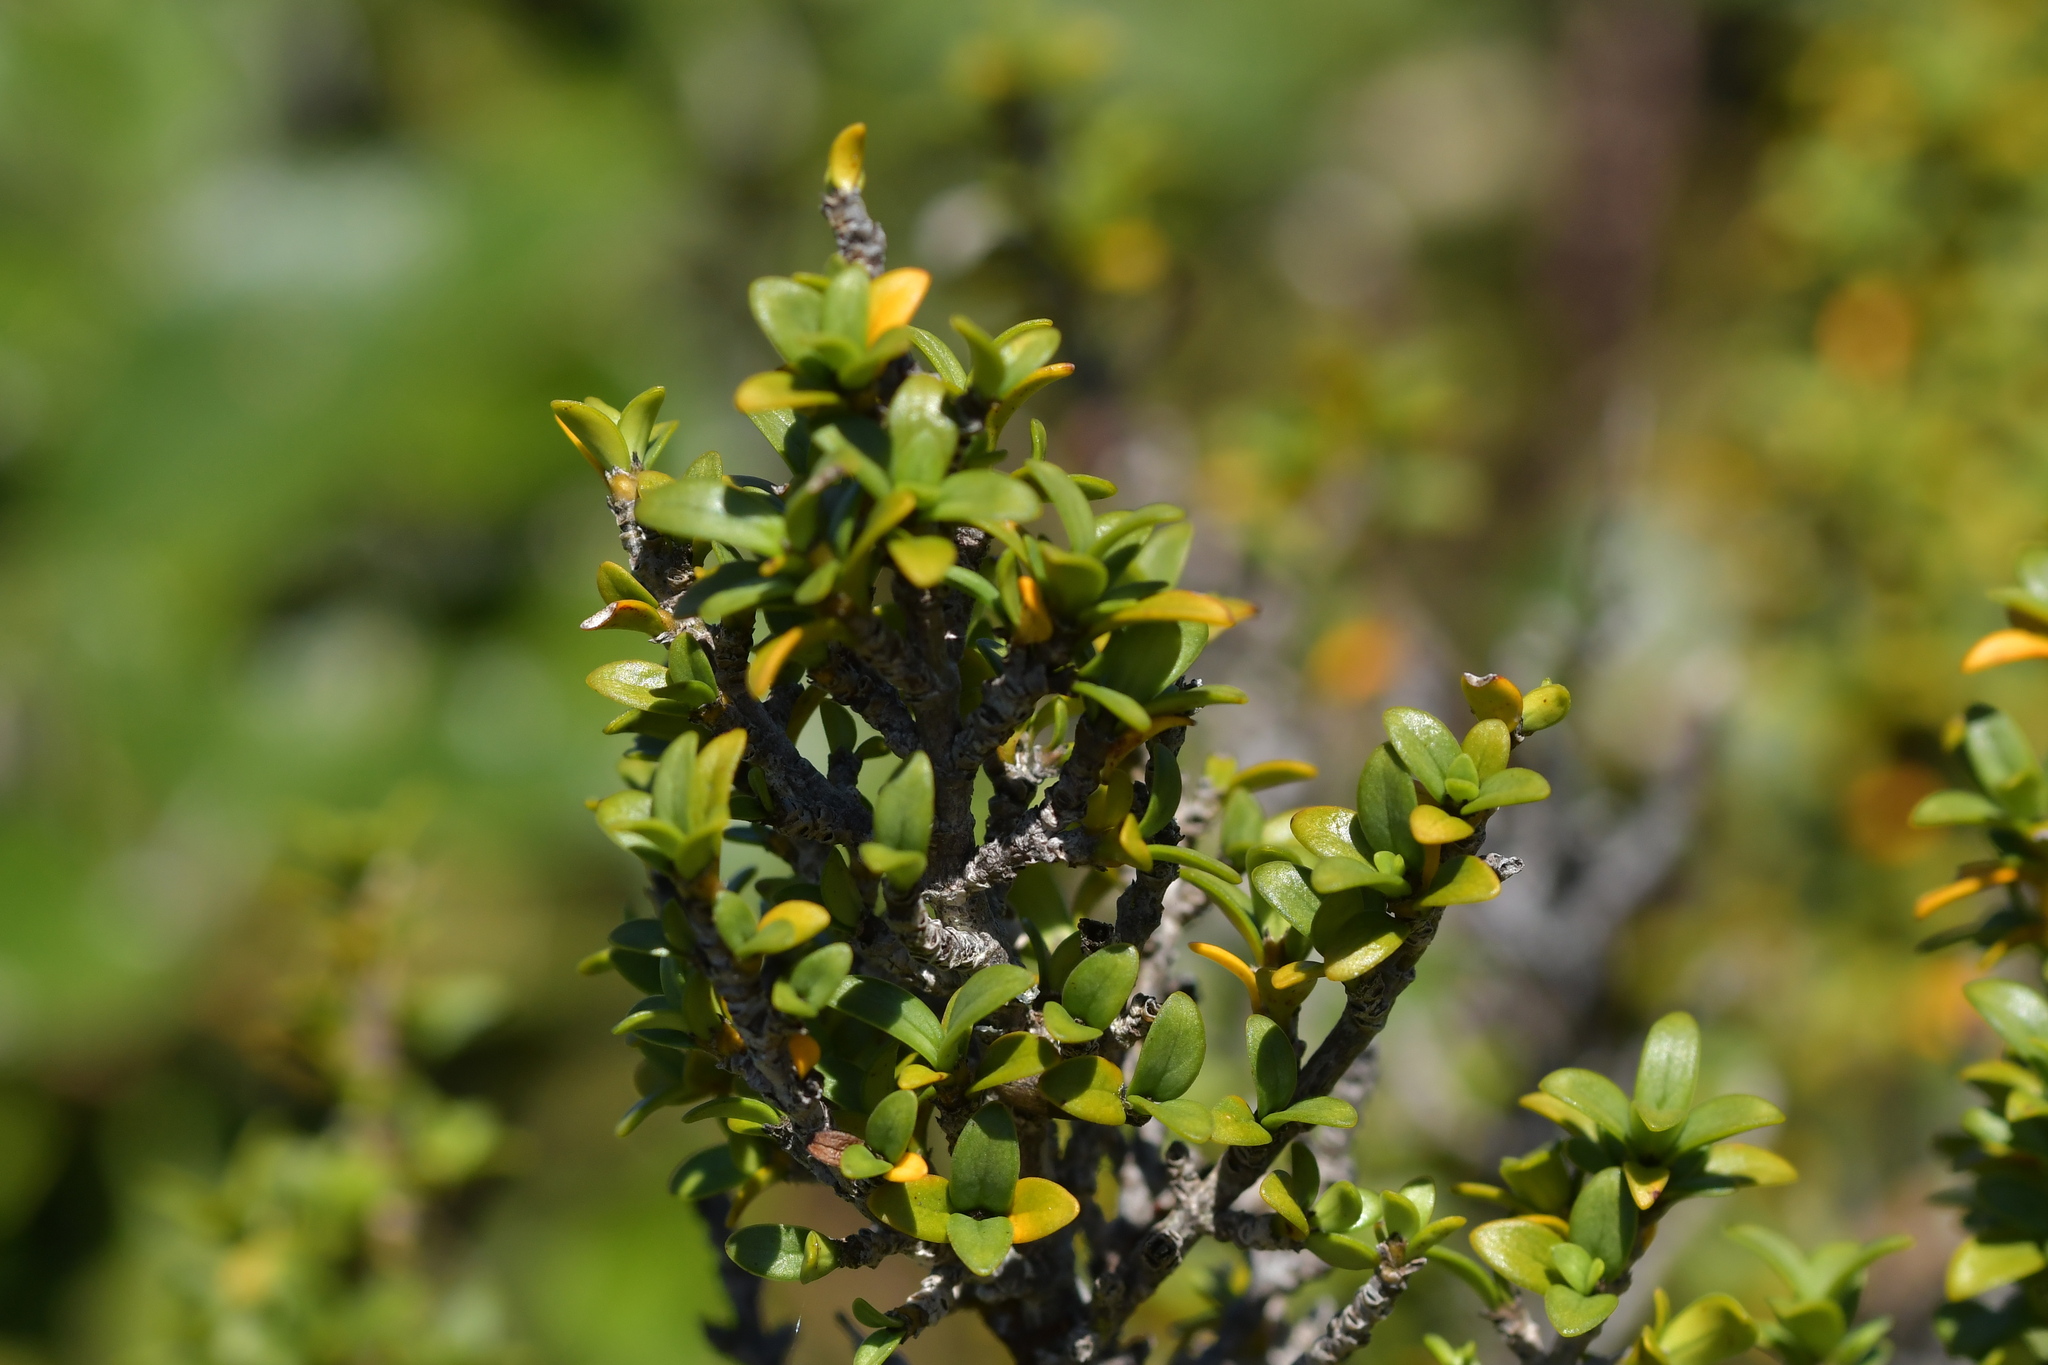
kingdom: Plantae
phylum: Tracheophyta
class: Magnoliopsida
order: Gentianales
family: Rubiaceae
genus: Coprosma
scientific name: Coprosma pseudocuneata
